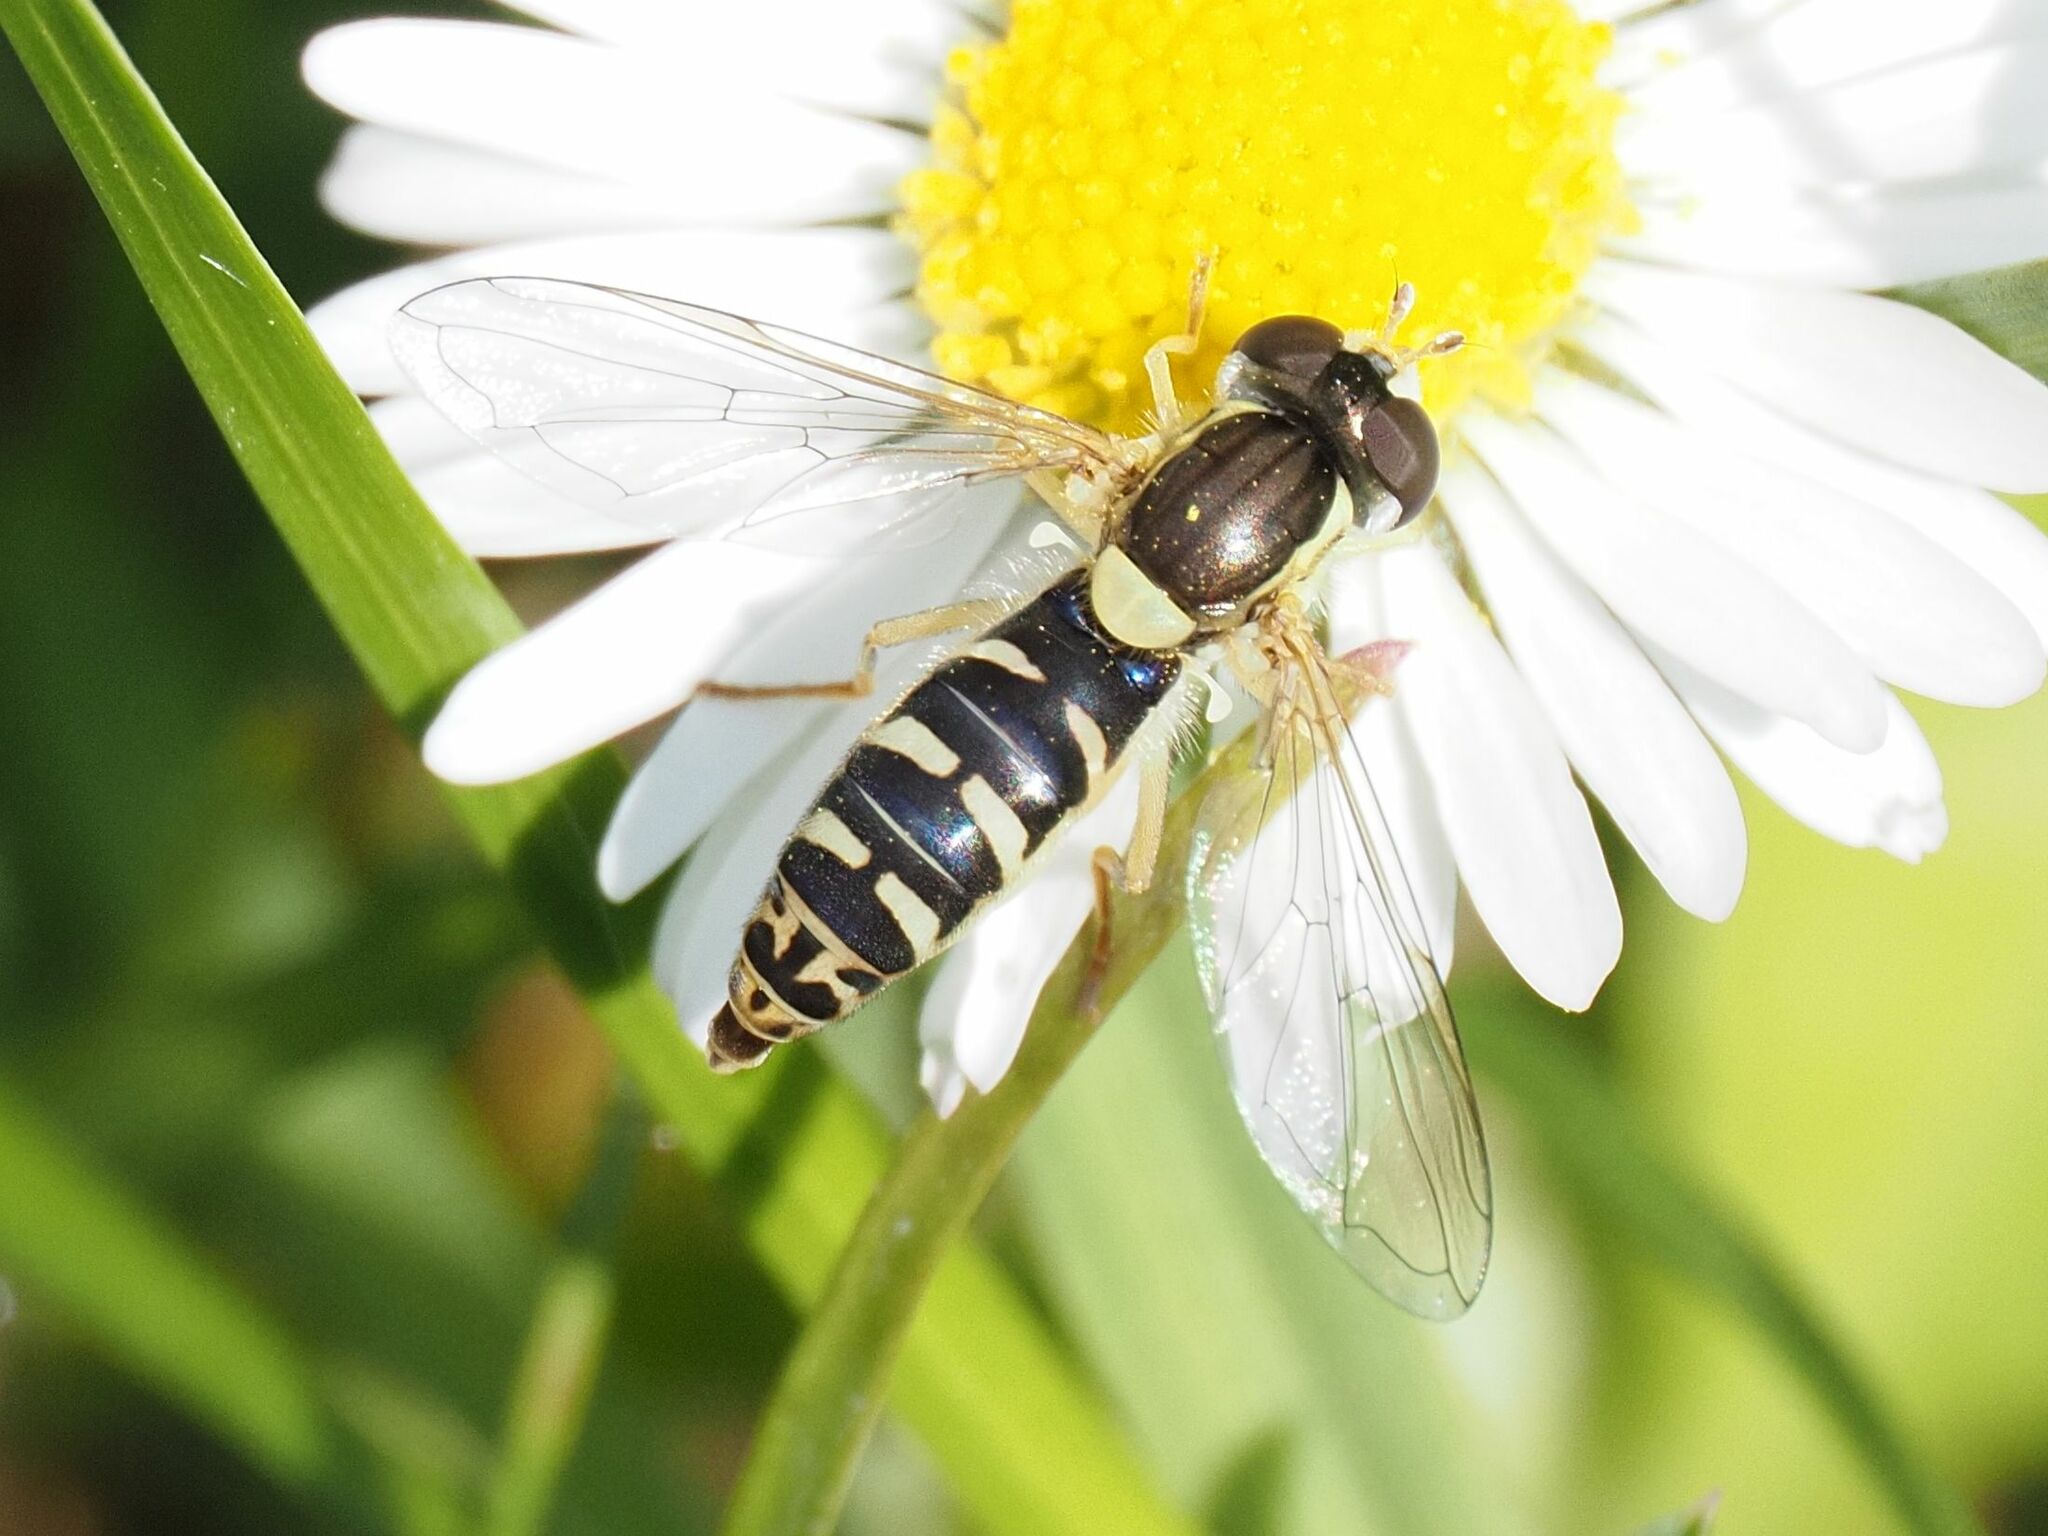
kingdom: Animalia
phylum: Arthropoda
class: Insecta
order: Diptera
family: Syrphidae
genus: Sphaerophoria
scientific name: Sphaerophoria
